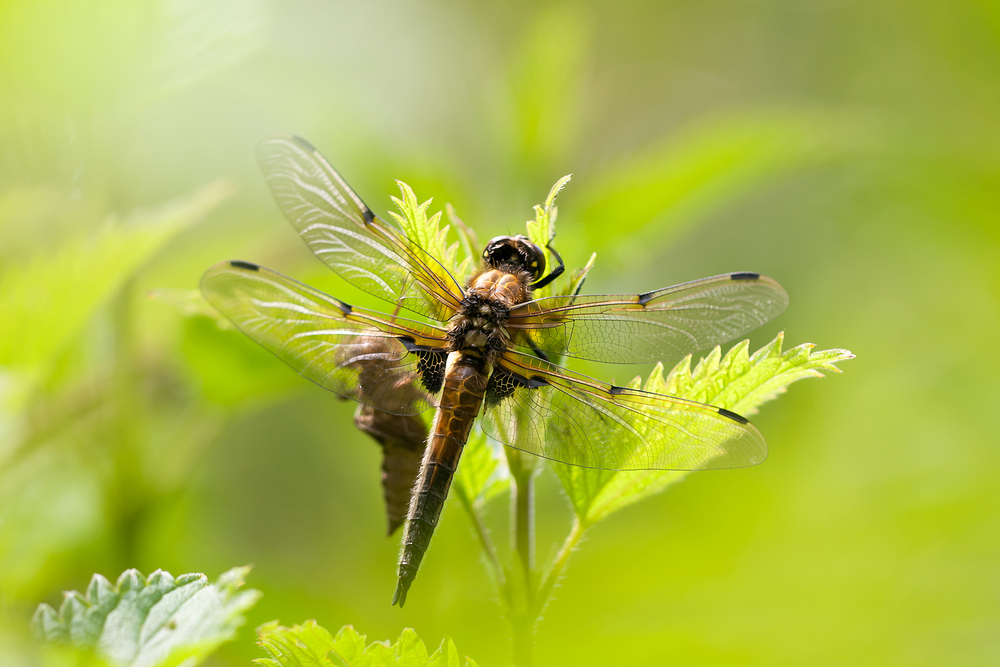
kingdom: Animalia
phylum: Arthropoda
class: Insecta
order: Odonata
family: Libellulidae
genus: Libellula
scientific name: Libellula quadrimaculata
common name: Four-spotted chaser
